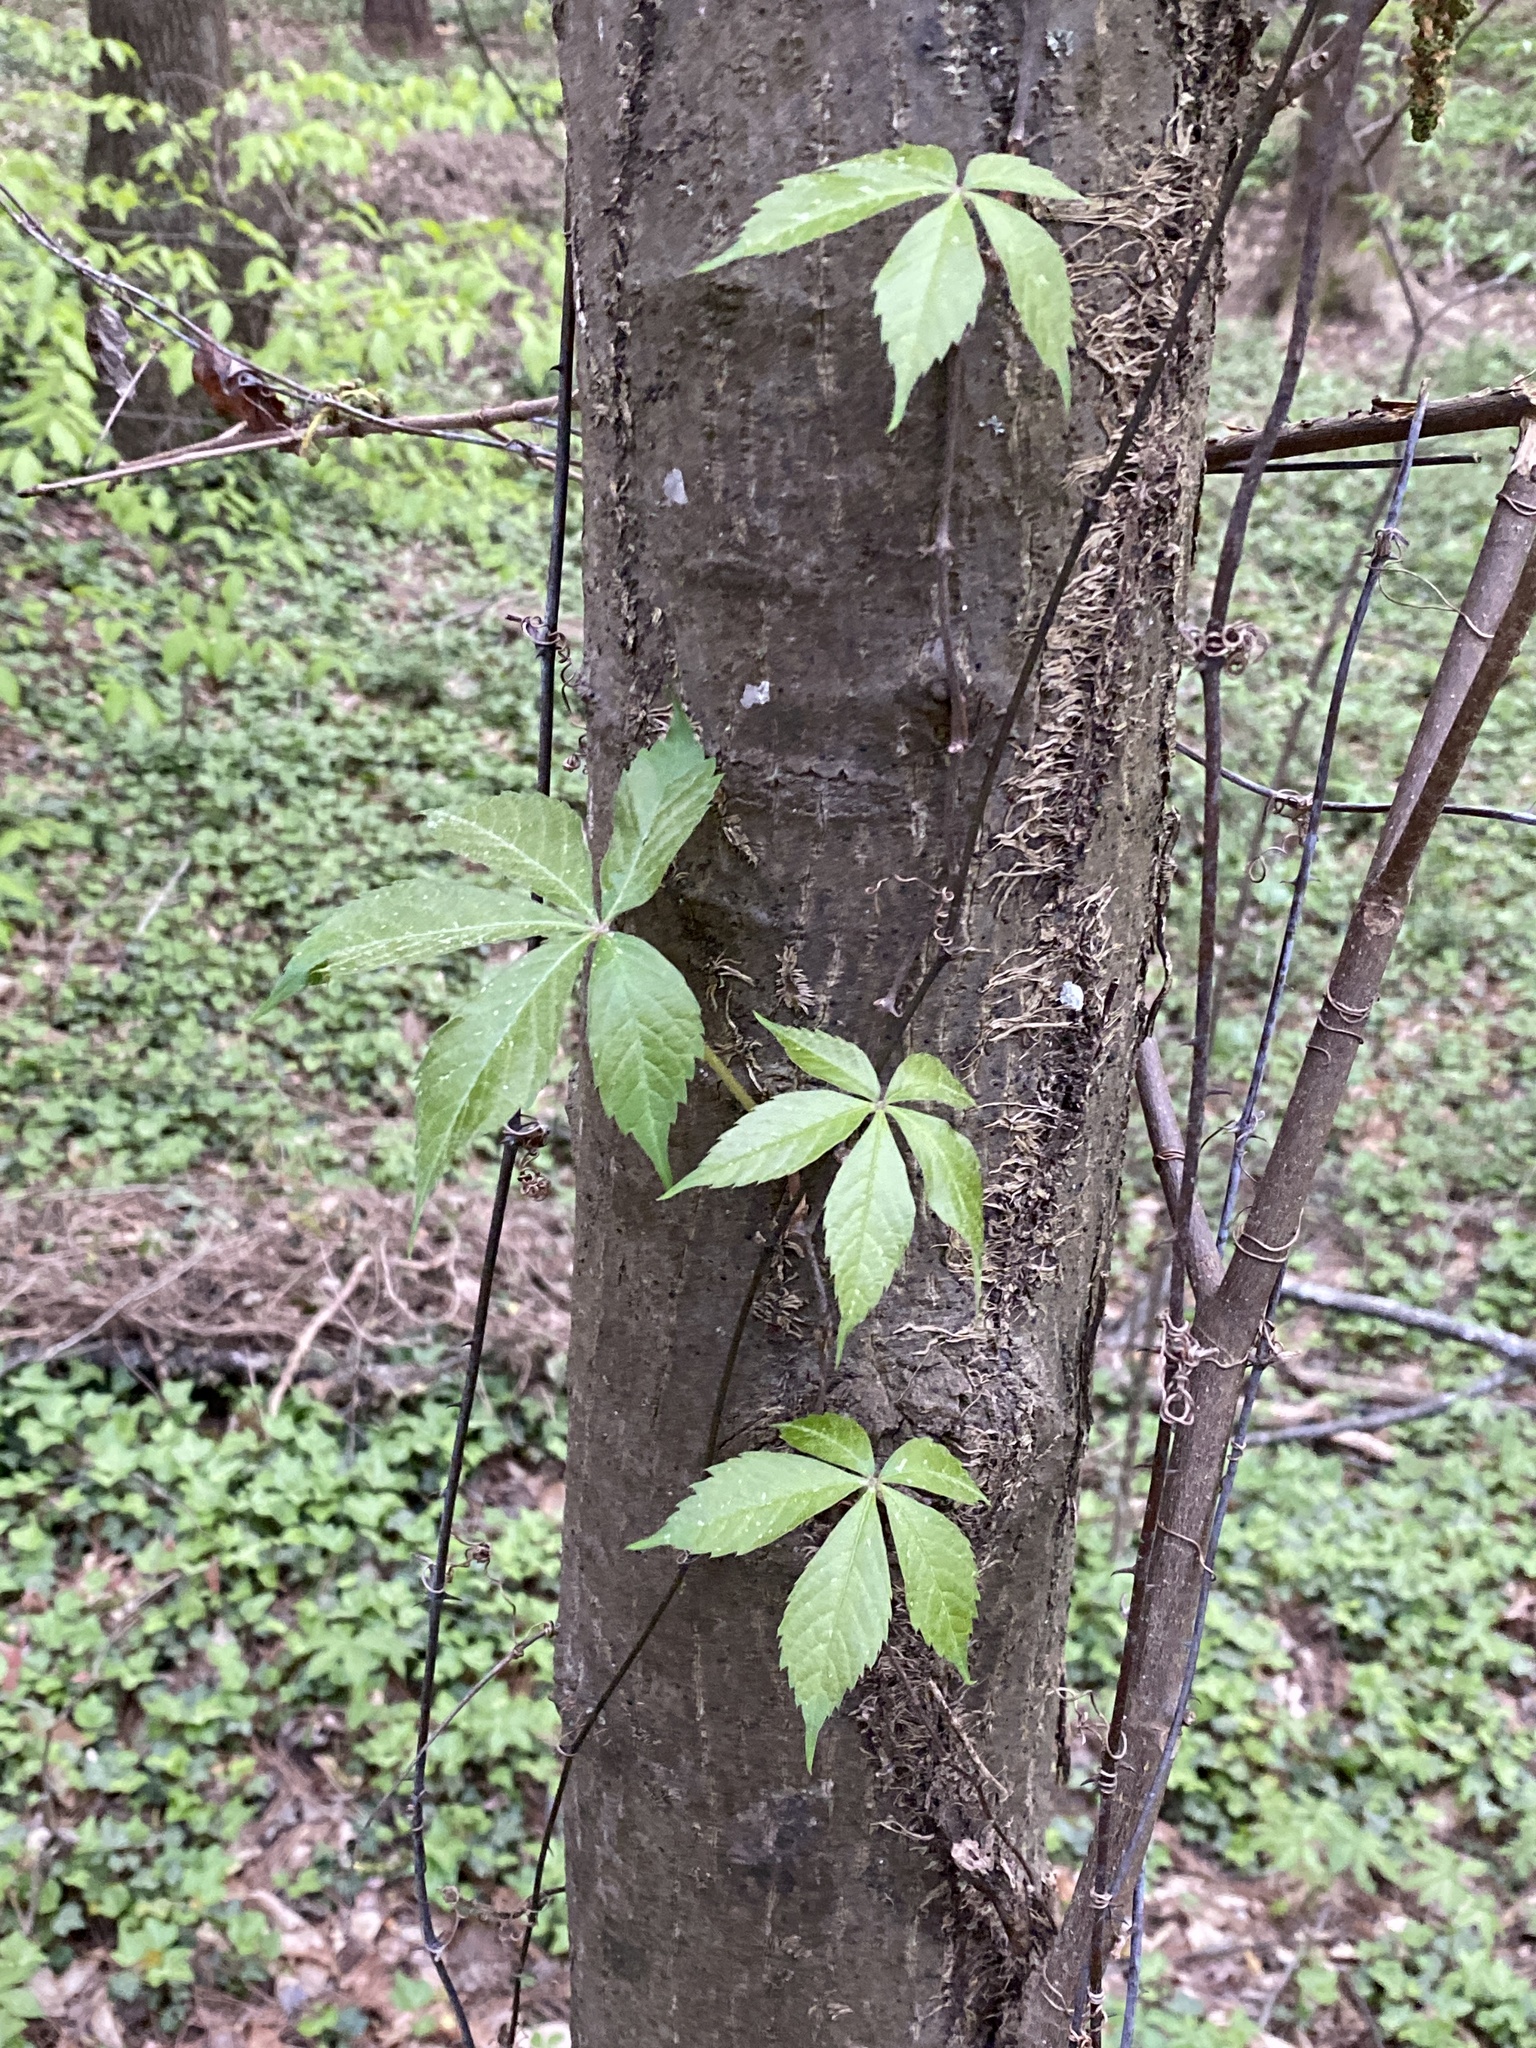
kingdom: Plantae
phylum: Tracheophyta
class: Magnoliopsida
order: Vitales
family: Vitaceae
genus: Parthenocissus
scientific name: Parthenocissus quinquefolia
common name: Virginia-creeper
